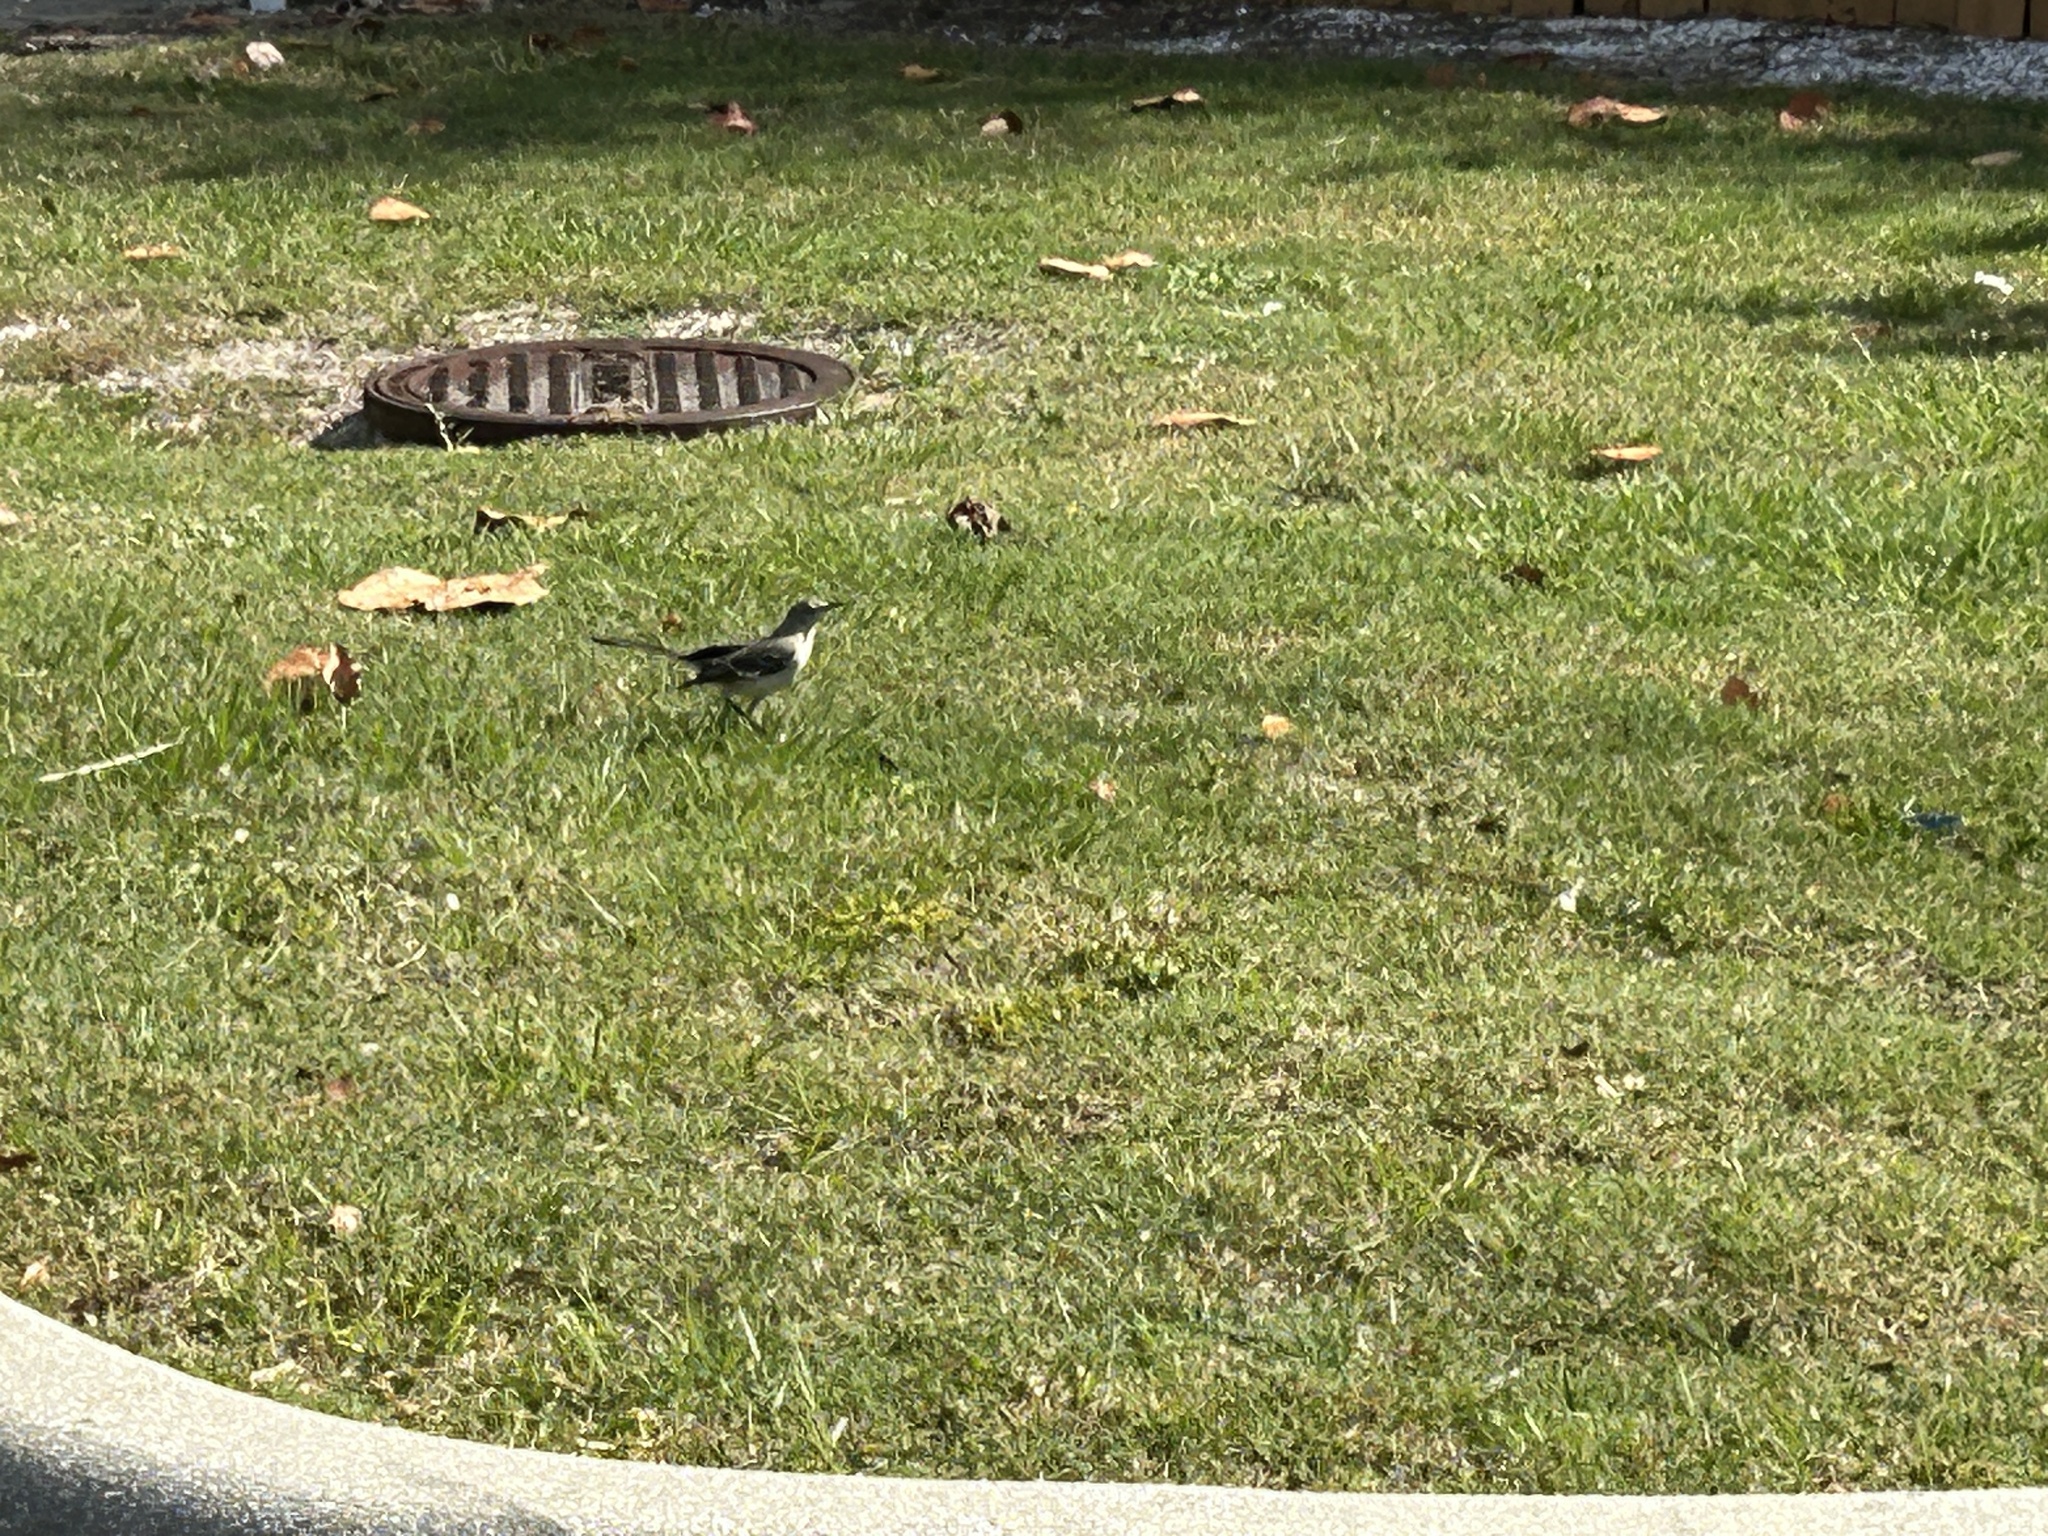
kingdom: Animalia
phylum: Chordata
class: Aves
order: Passeriformes
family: Mimidae
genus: Mimus
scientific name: Mimus polyglottos
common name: Northern mockingbird
